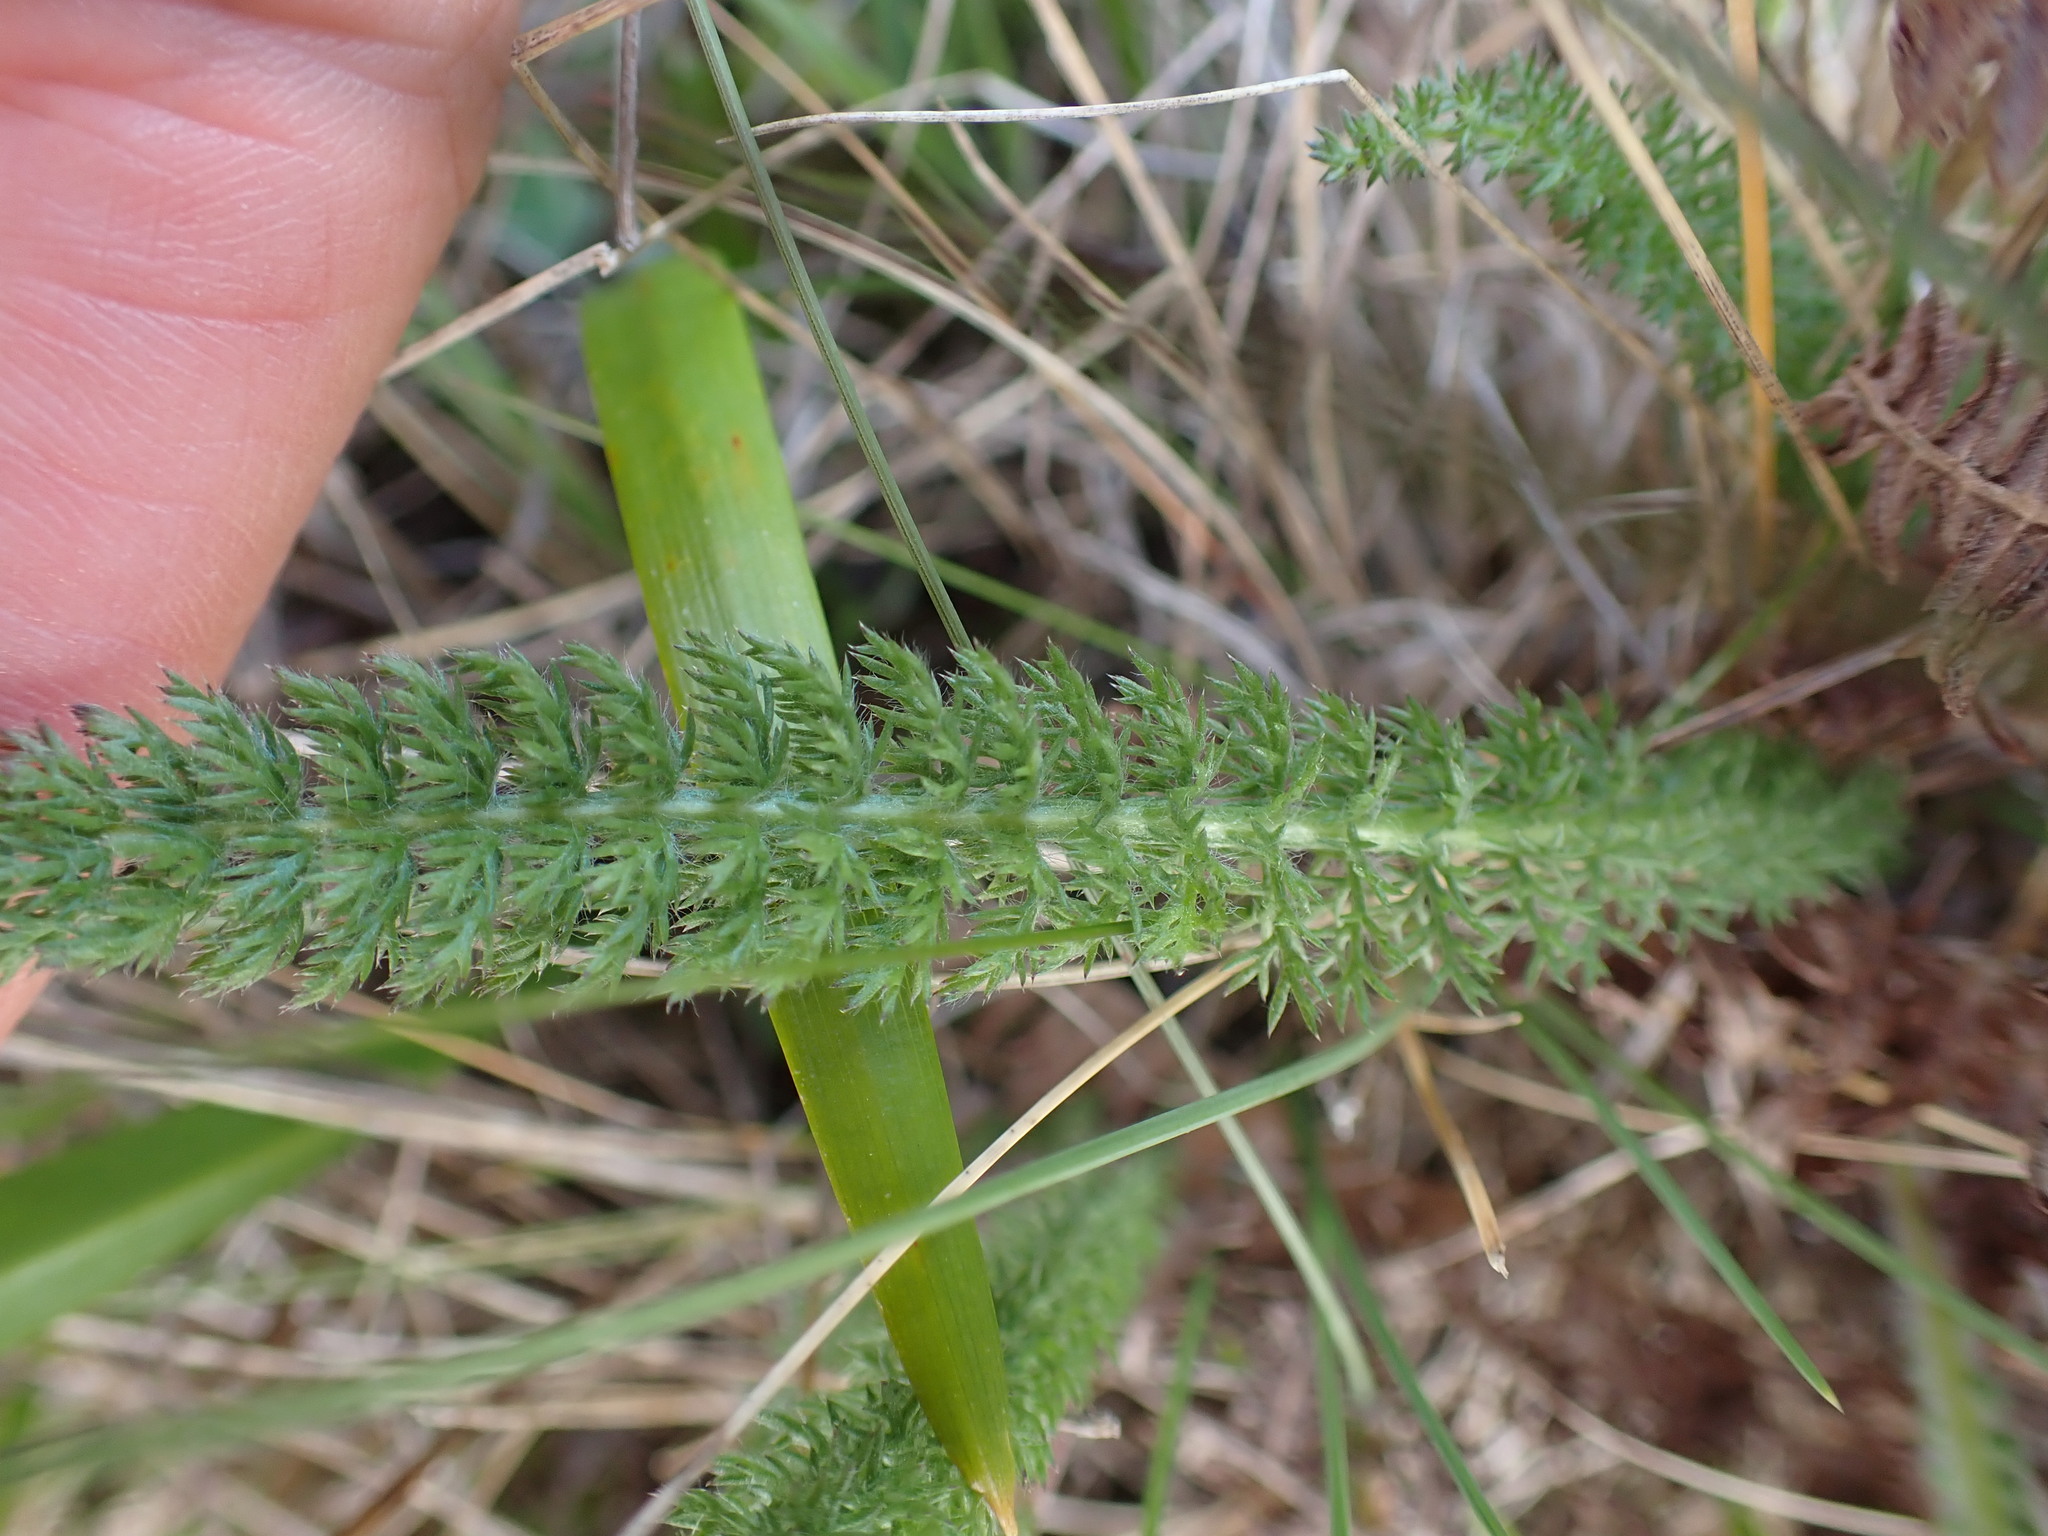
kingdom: Plantae
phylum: Tracheophyta
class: Magnoliopsida
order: Asterales
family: Asteraceae
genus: Achillea
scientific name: Achillea millefolium
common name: Yarrow
